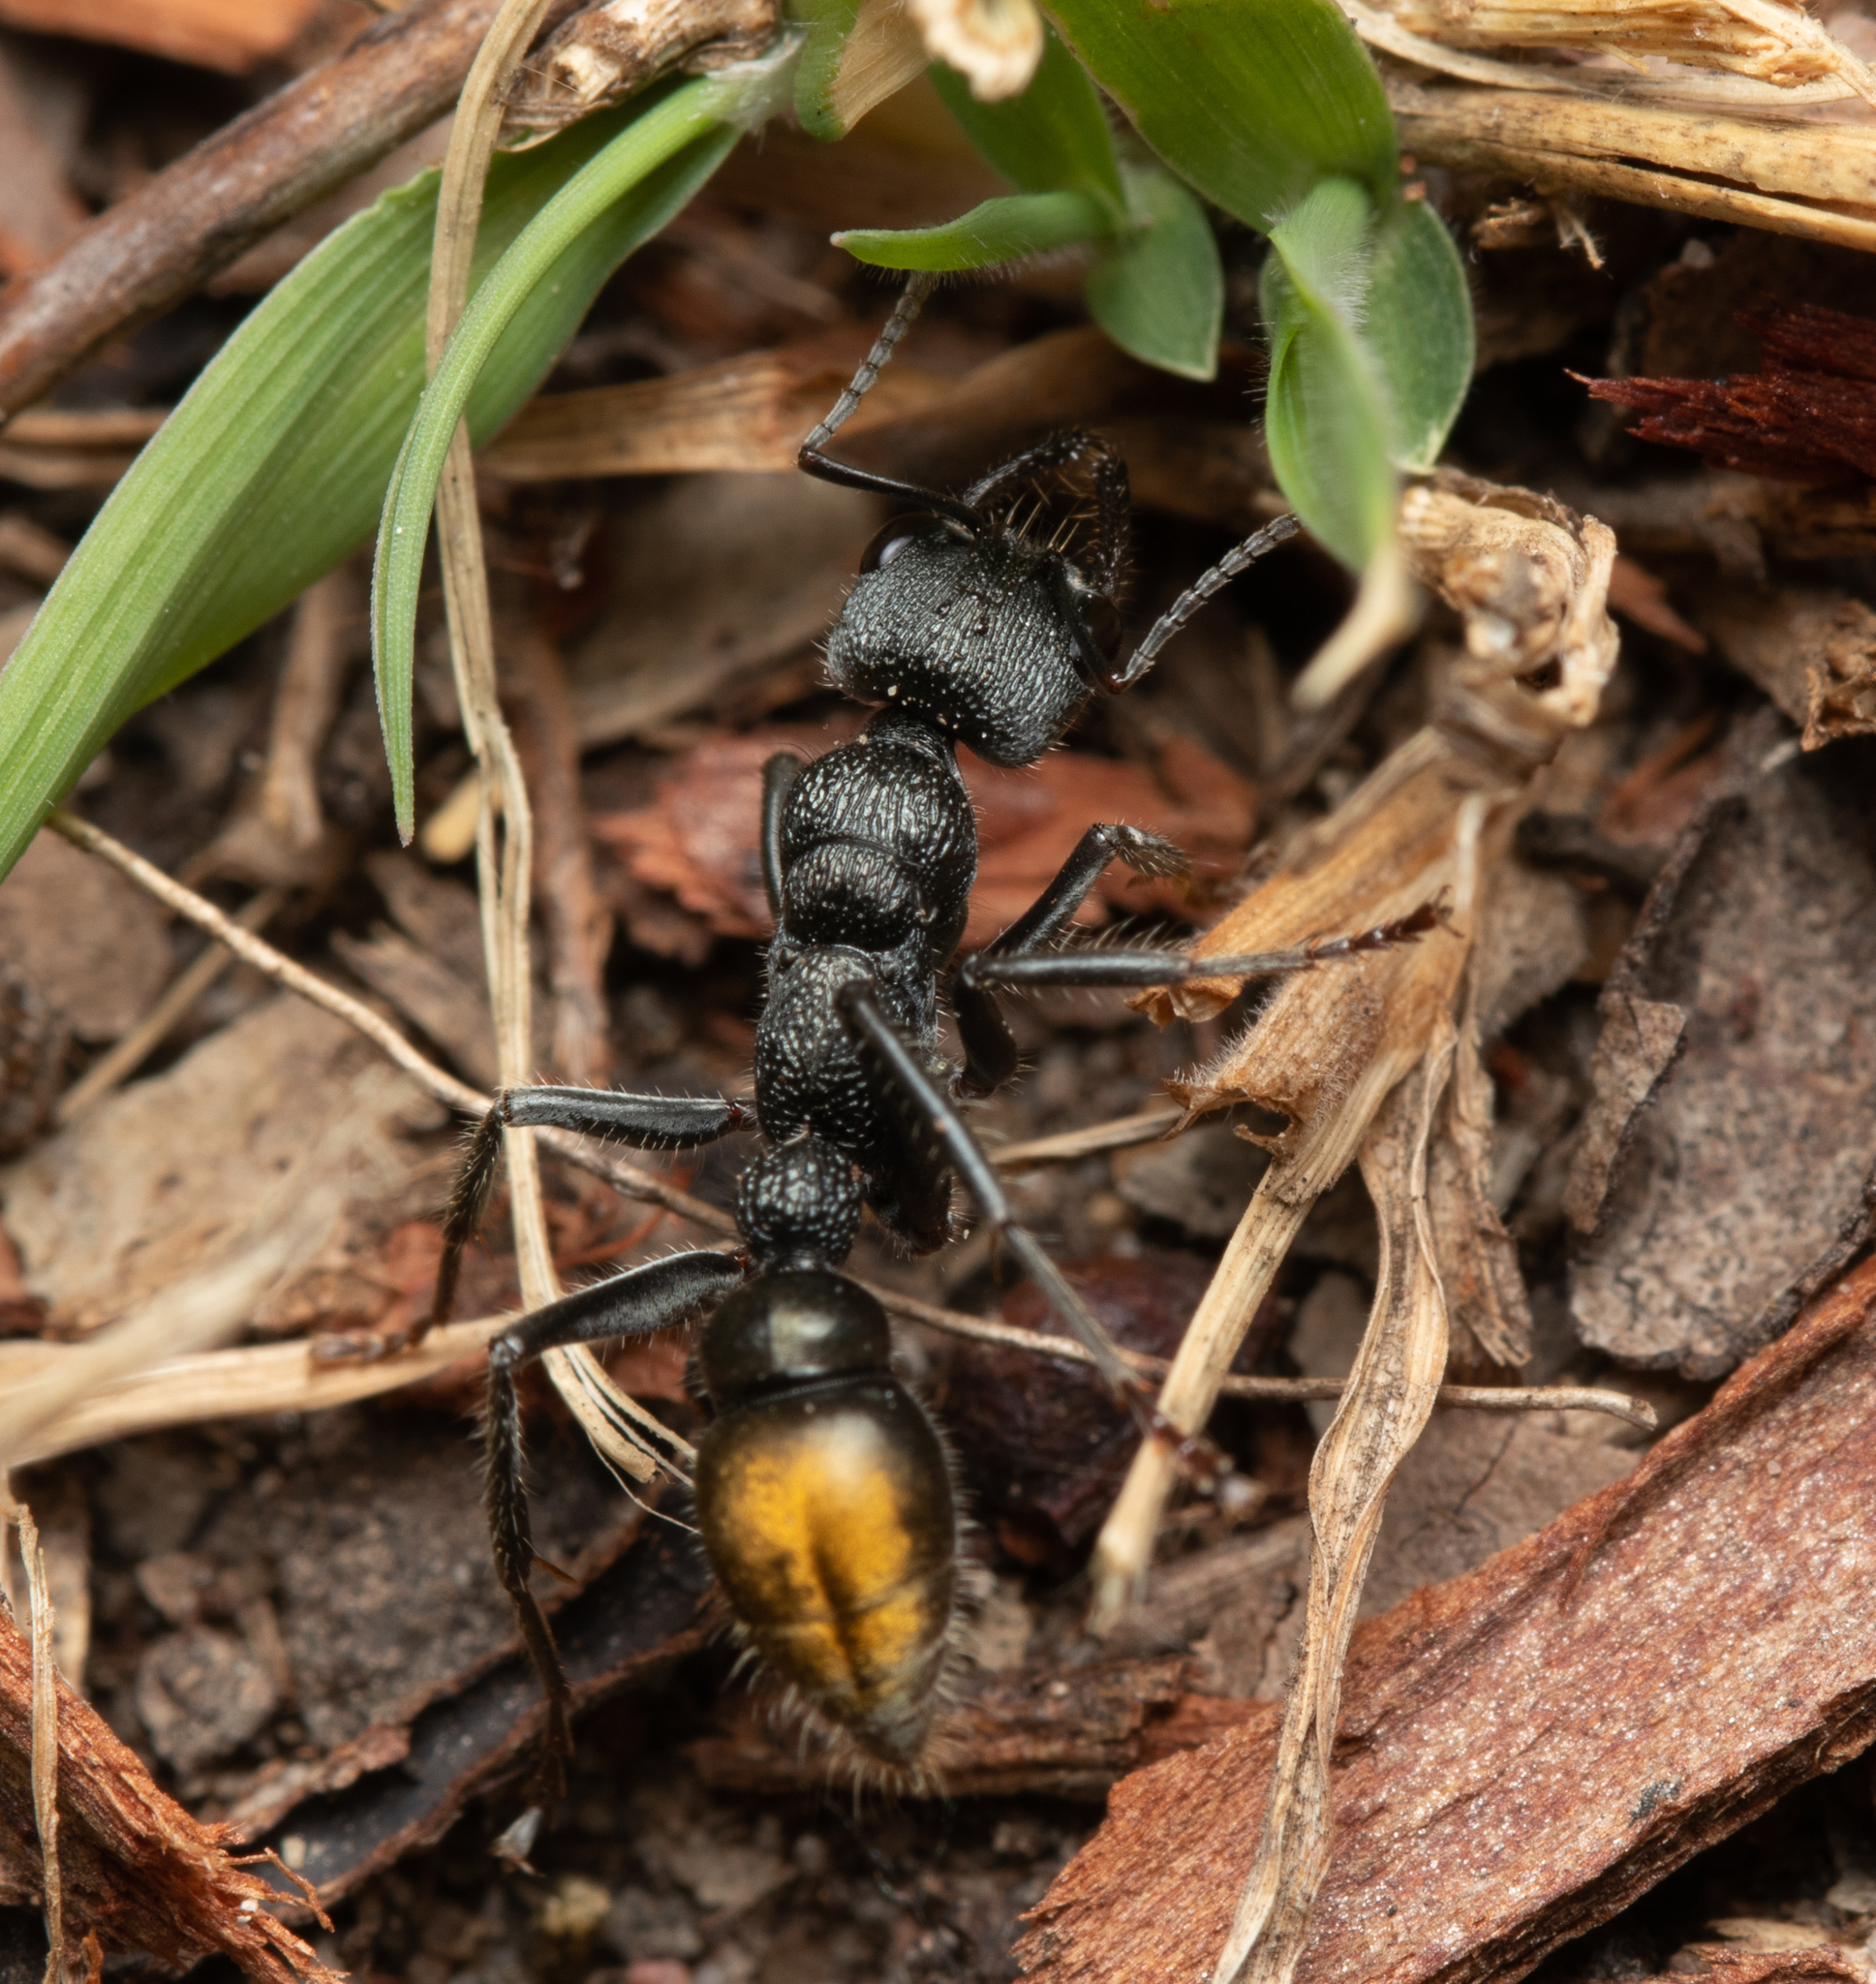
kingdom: Animalia
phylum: Arthropoda
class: Insecta
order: Hymenoptera
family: Formicidae
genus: Myrmecia
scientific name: Myrmecia gilberti
